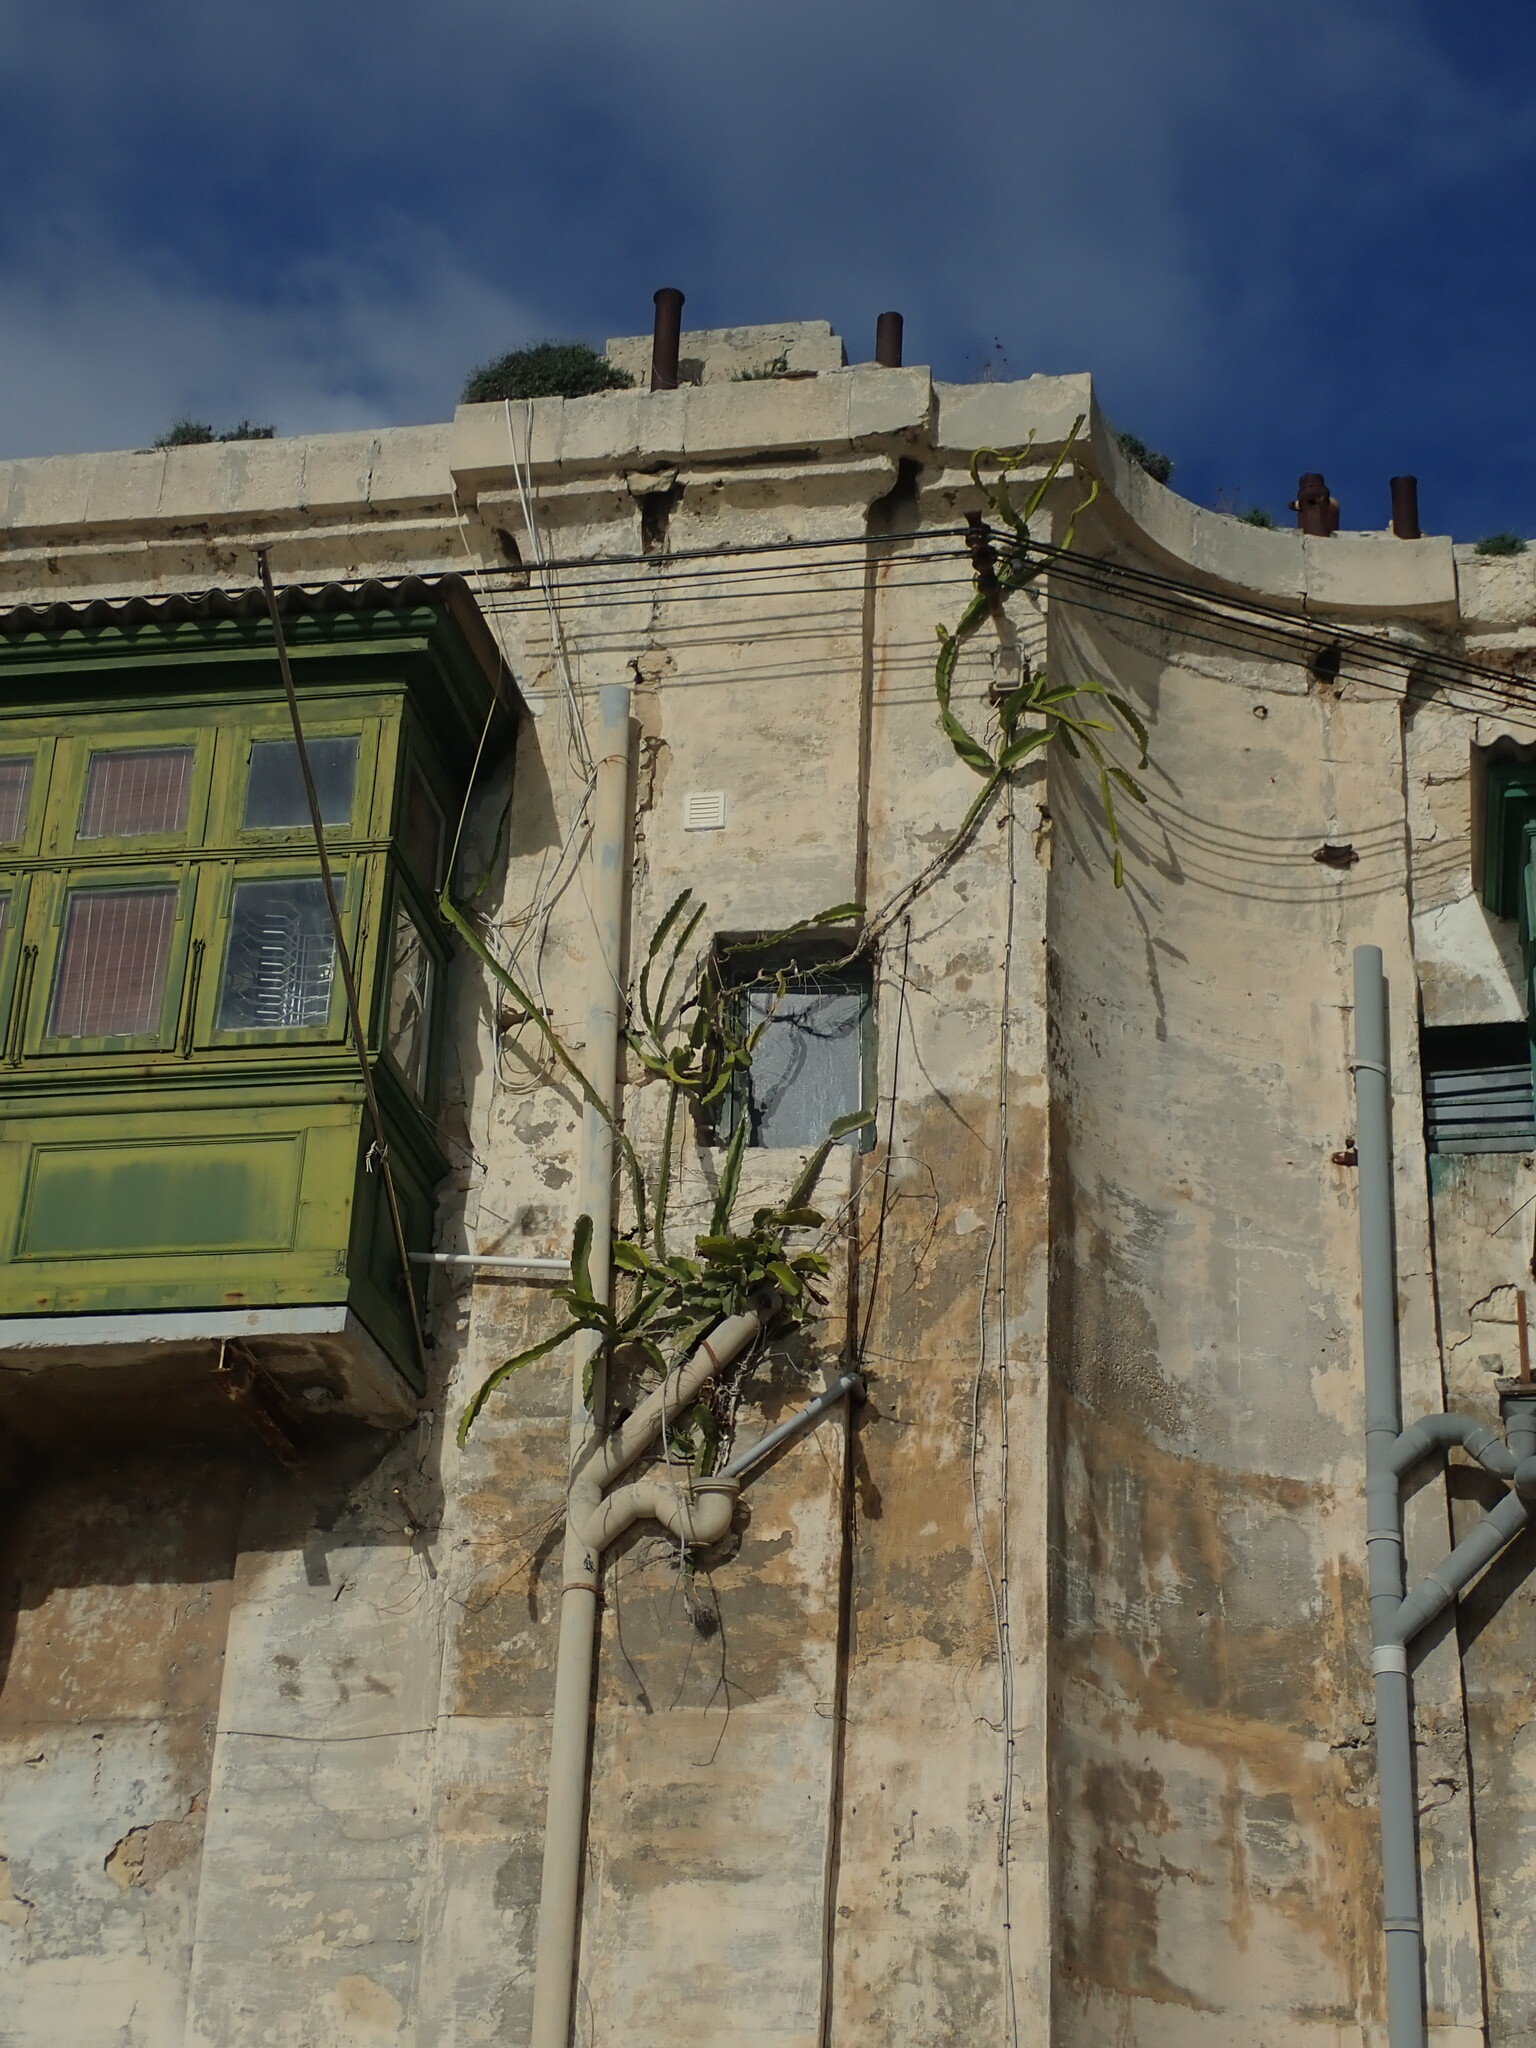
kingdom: Plantae
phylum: Tracheophyta
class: Magnoliopsida
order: Caryophyllales
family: Cactaceae
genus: Selenicereus
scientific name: Selenicereus undatus
